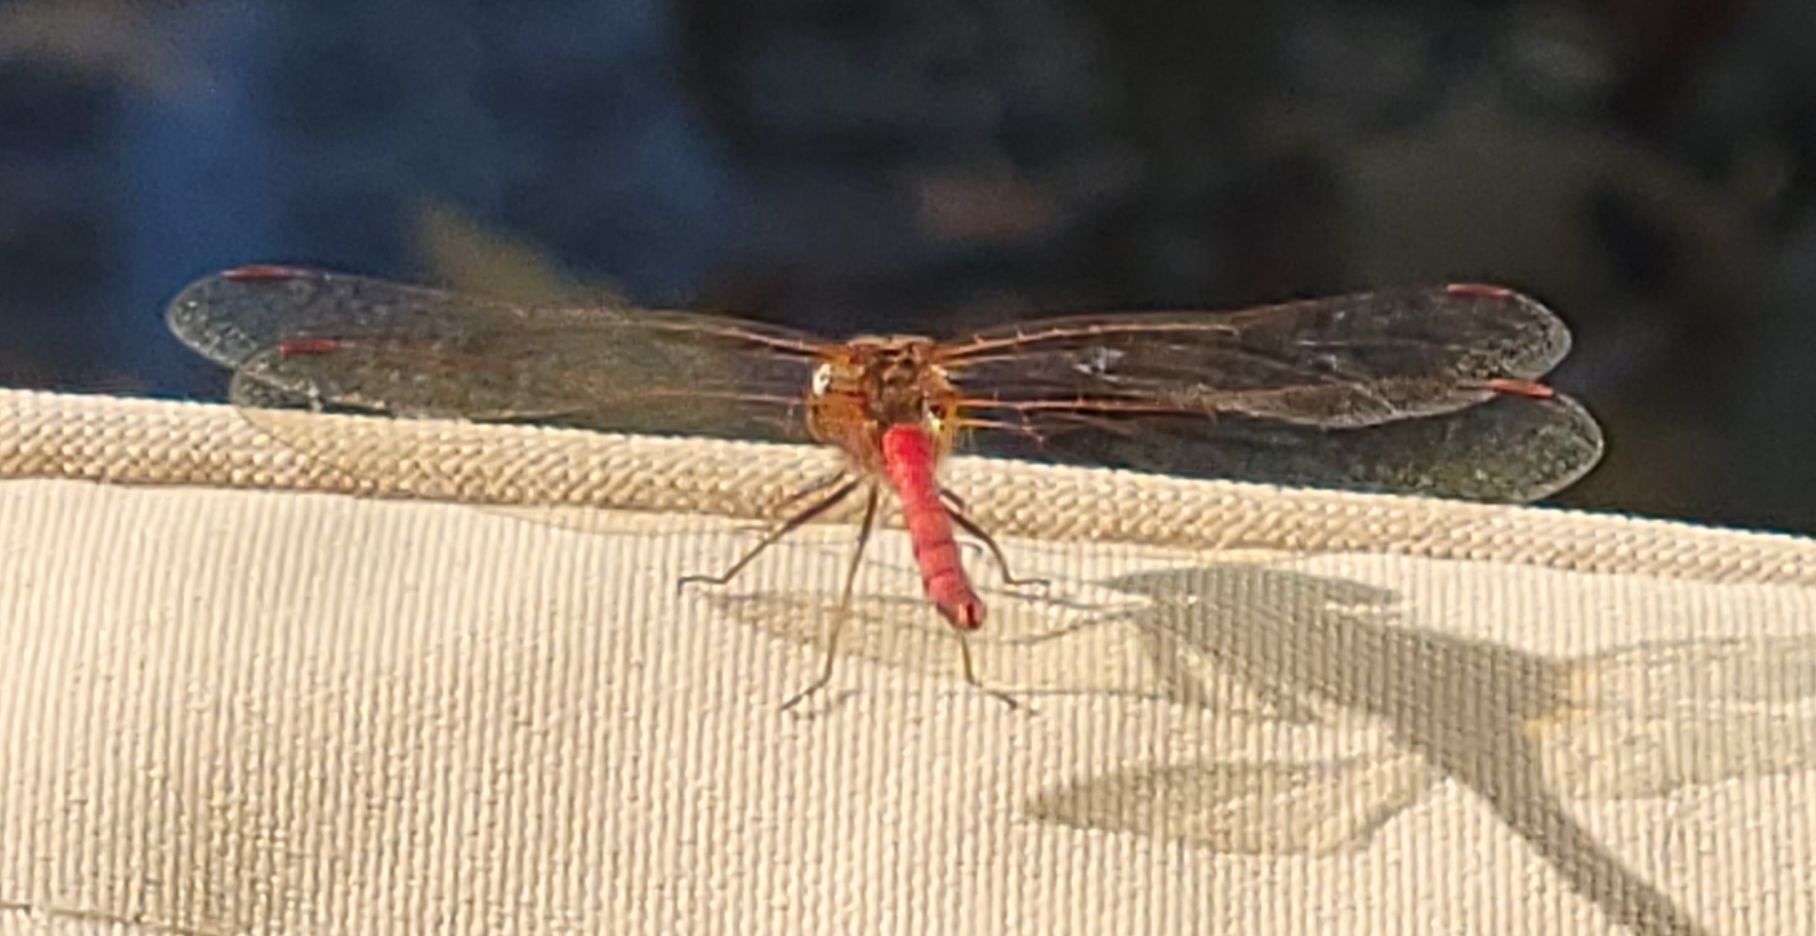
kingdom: Animalia
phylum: Arthropoda
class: Insecta
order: Odonata
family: Libellulidae
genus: Sympetrum
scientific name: Sympetrum vicinum
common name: Autumn meadowhawk
